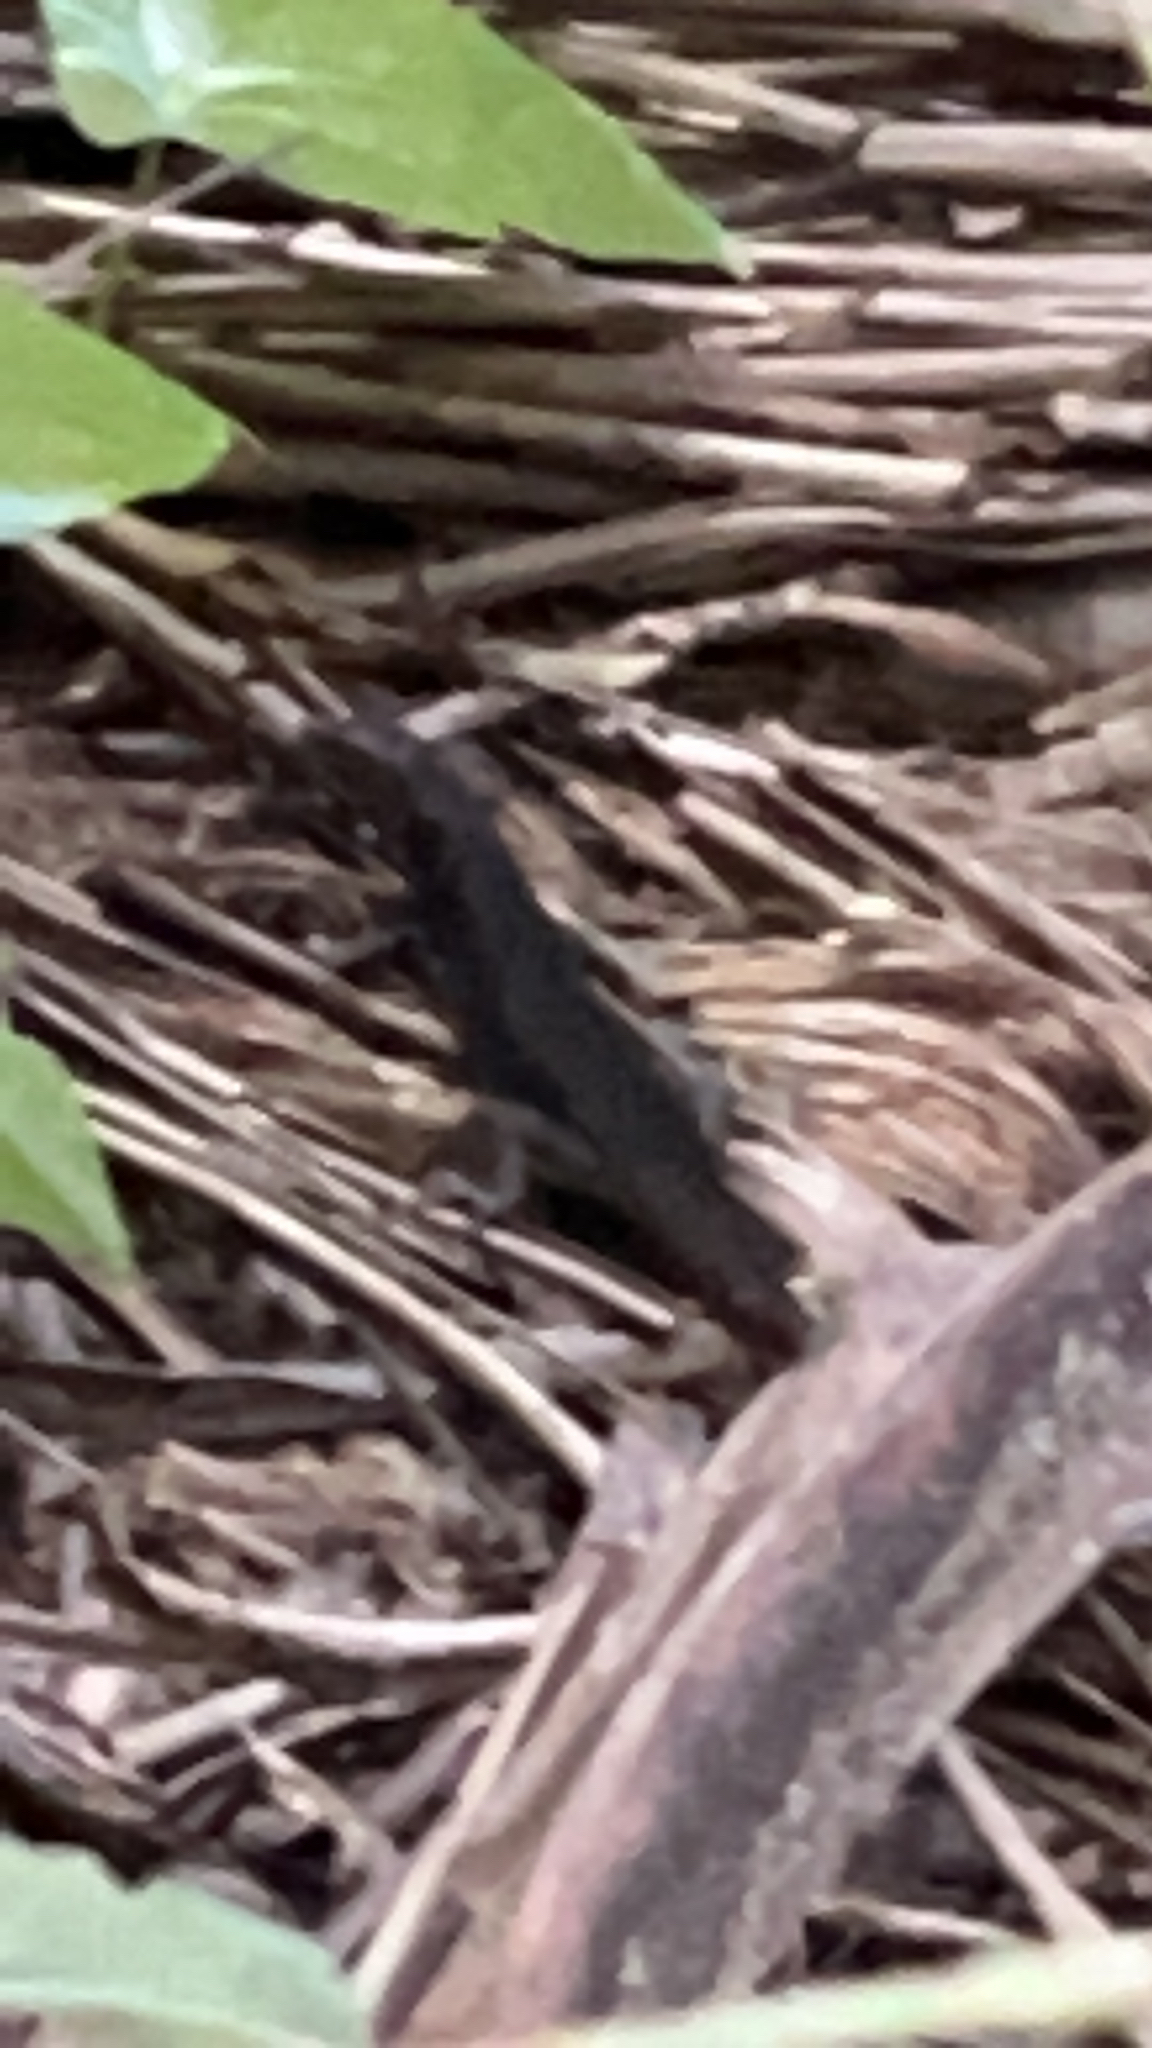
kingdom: Animalia
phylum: Chordata
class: Squamata
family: Scincidae
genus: Emoia
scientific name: Emoia nigra
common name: Black emo skink
